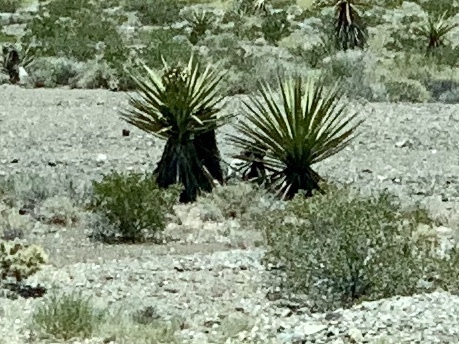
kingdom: Plantae
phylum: Tracheophyta
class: Liliopsida
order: Asparagales
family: Asparagaceae
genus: Yucca
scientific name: Yucca schidigera
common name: Mojave yucca
